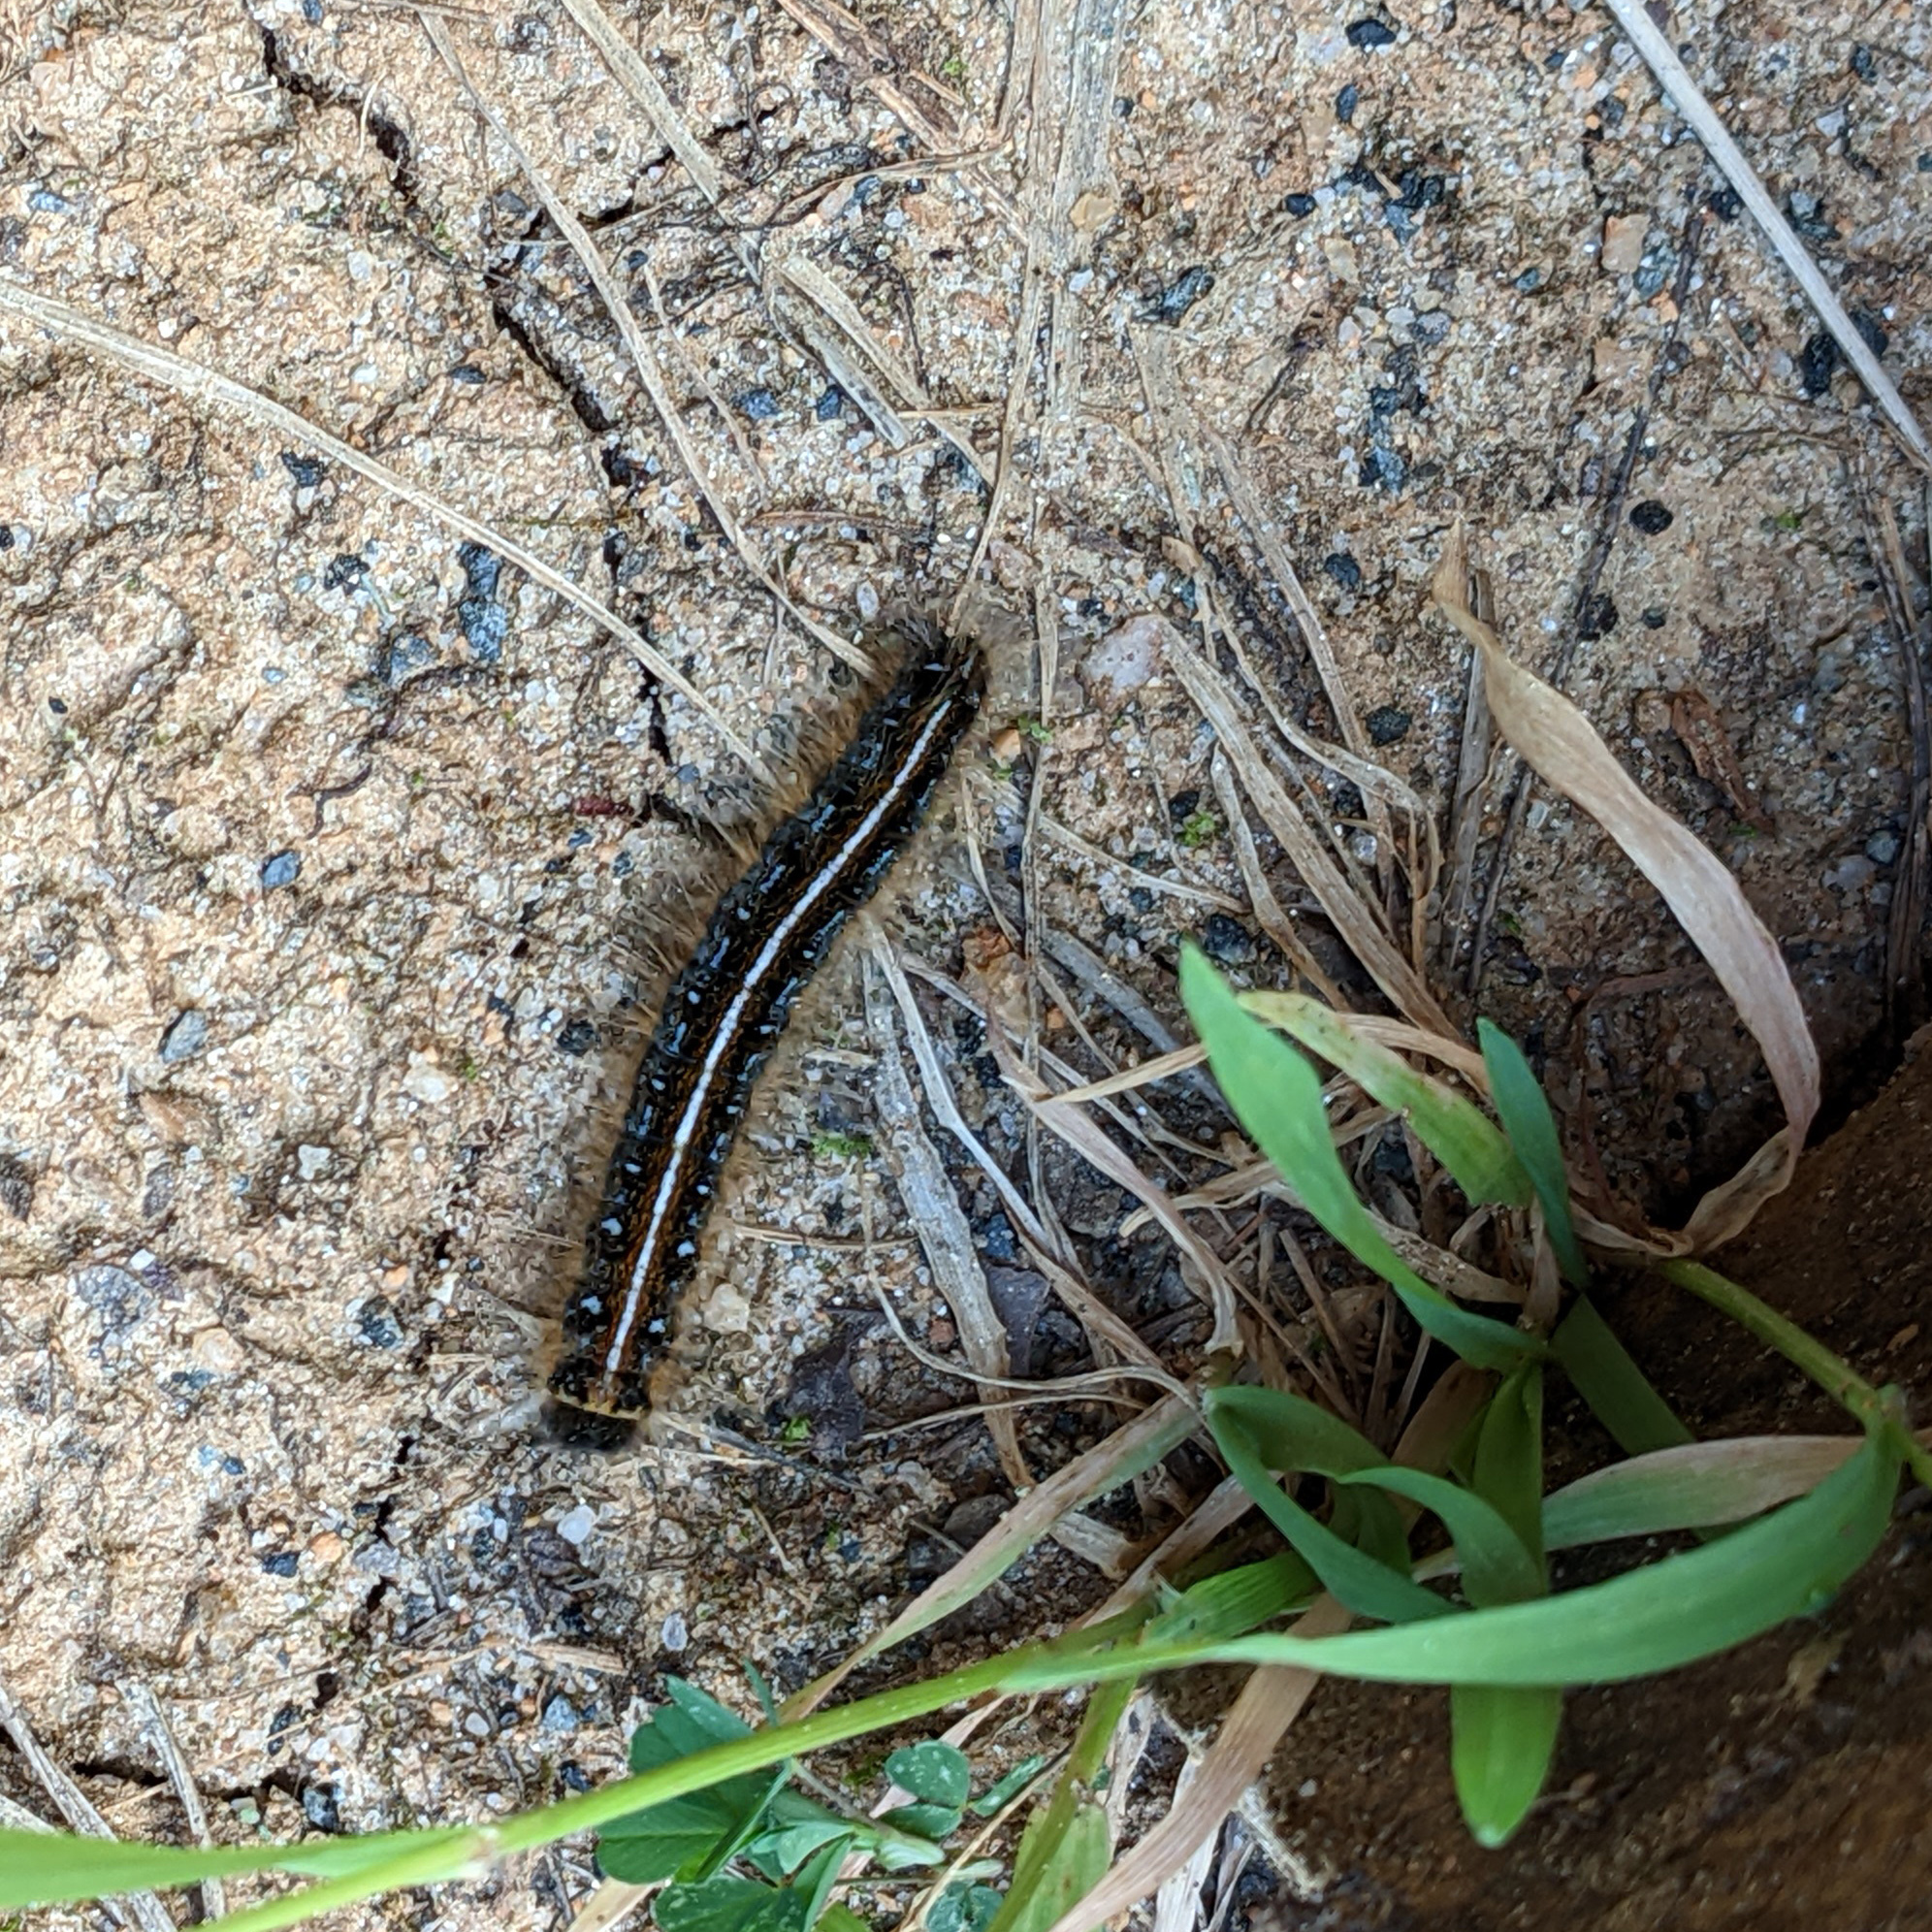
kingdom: Animalia
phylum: Arthropoda
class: Insecta
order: Lepidoptera
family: Lasiocampidae
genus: Malacosoma
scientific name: Malacosoma americana
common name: Eastern tent caterpillar moth
